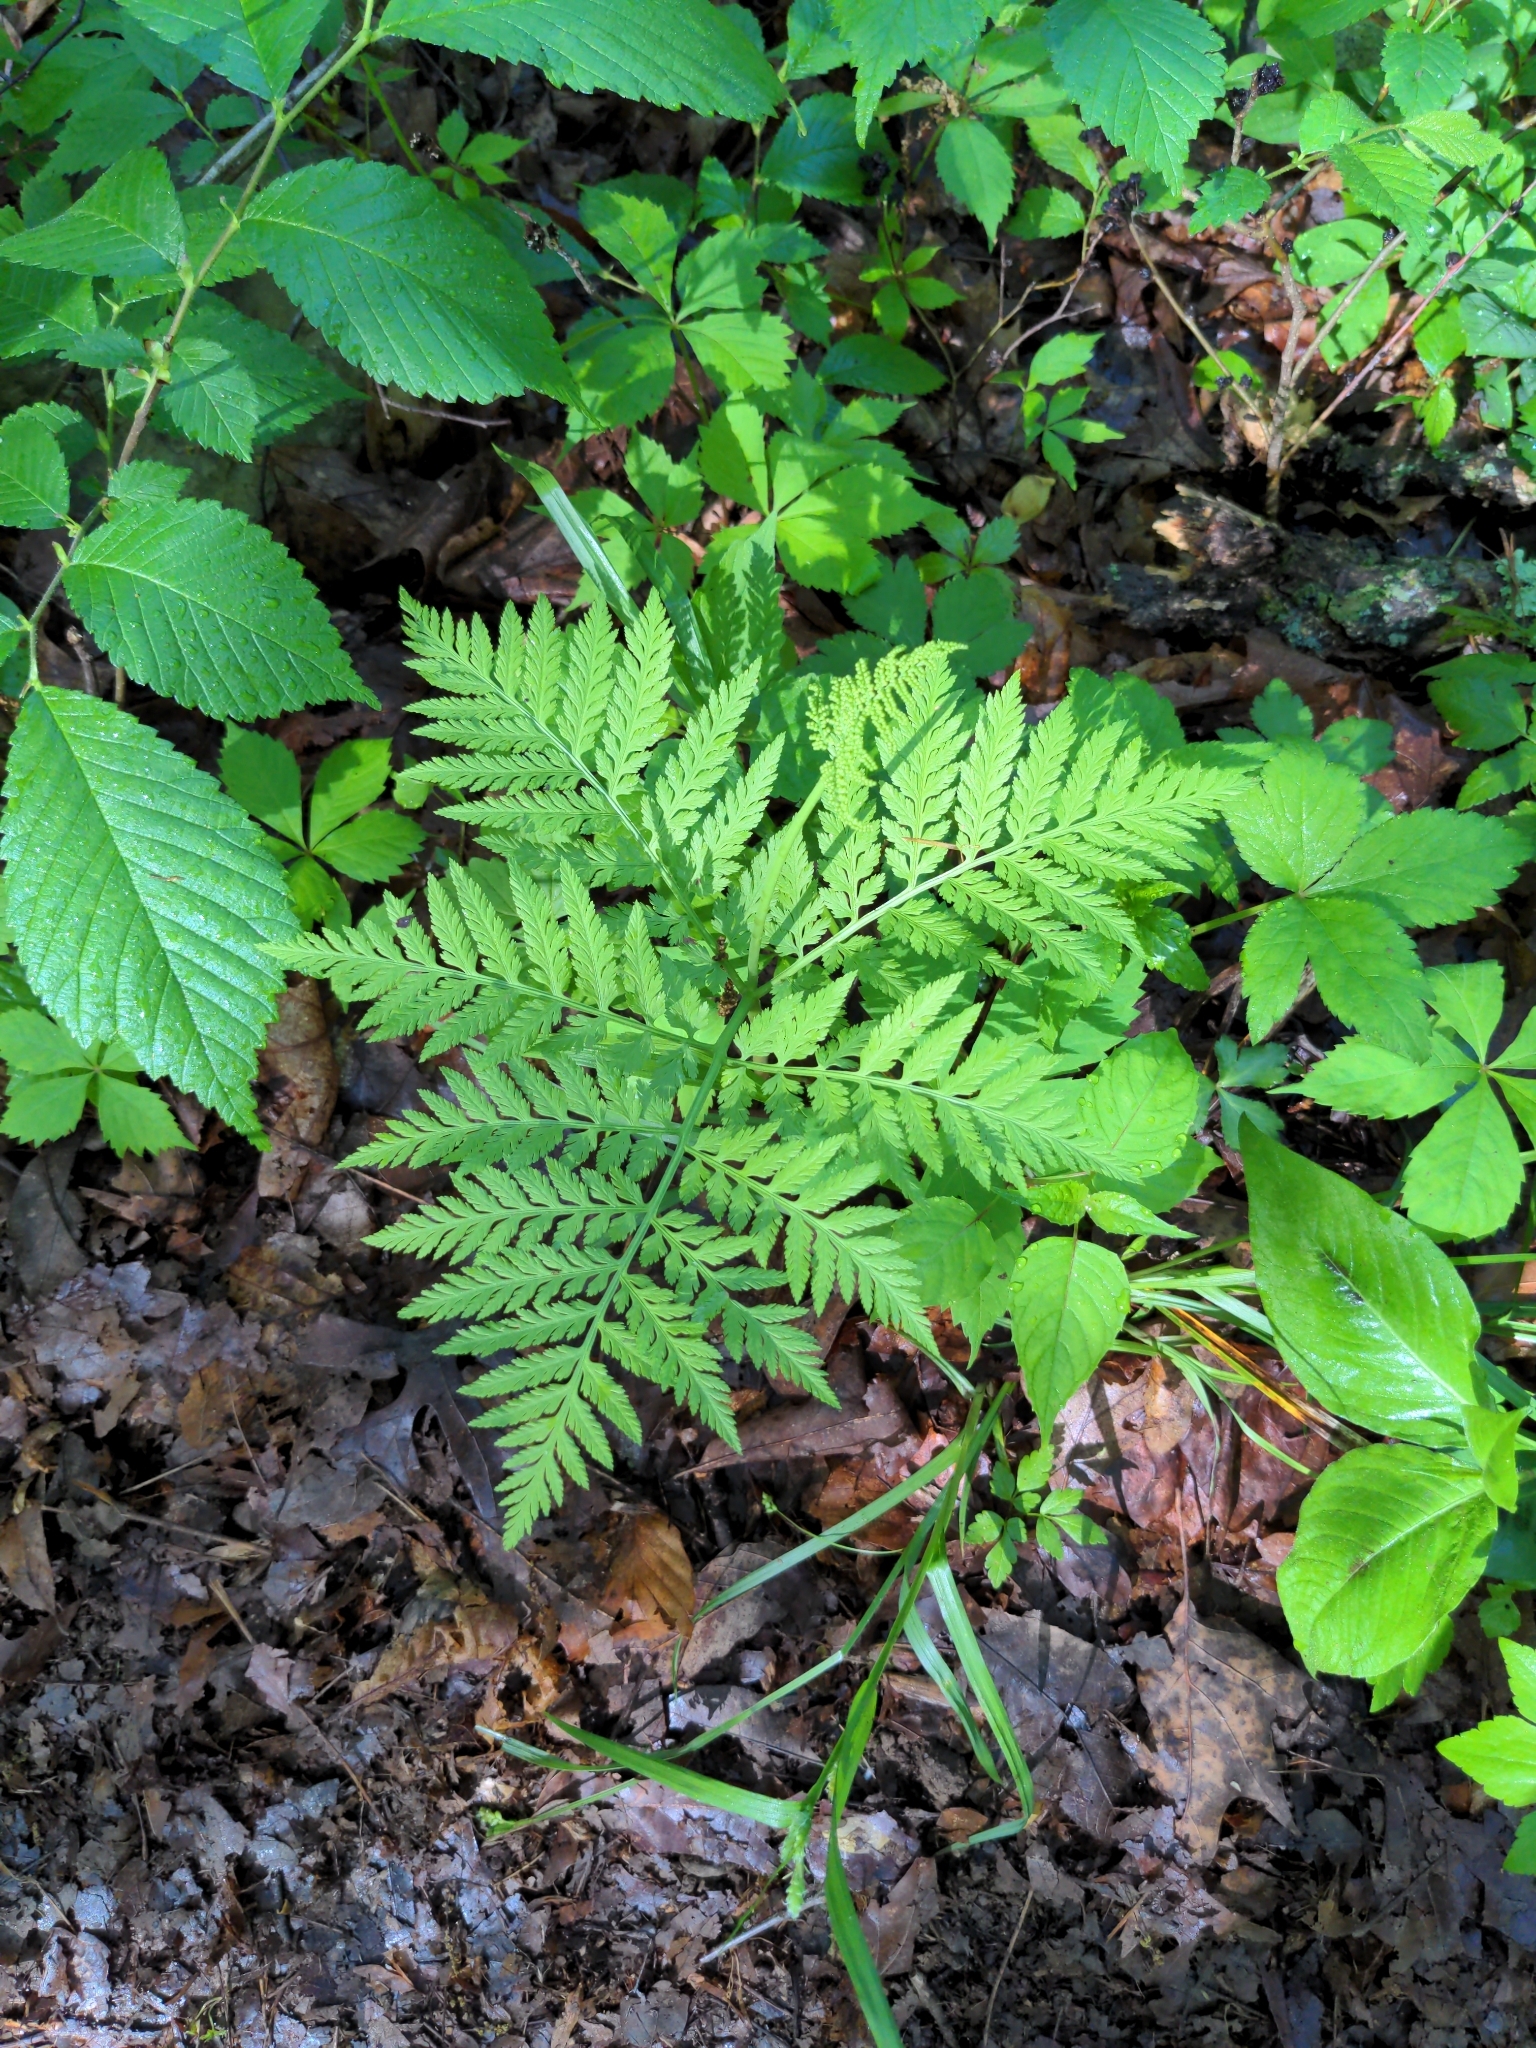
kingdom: Plantae
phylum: Tracheophyta
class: Polypodiopsida
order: Ophioglossales
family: Ophioglossaceae
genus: Botrypus
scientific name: Botrypus virginianus
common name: Common grapefern
